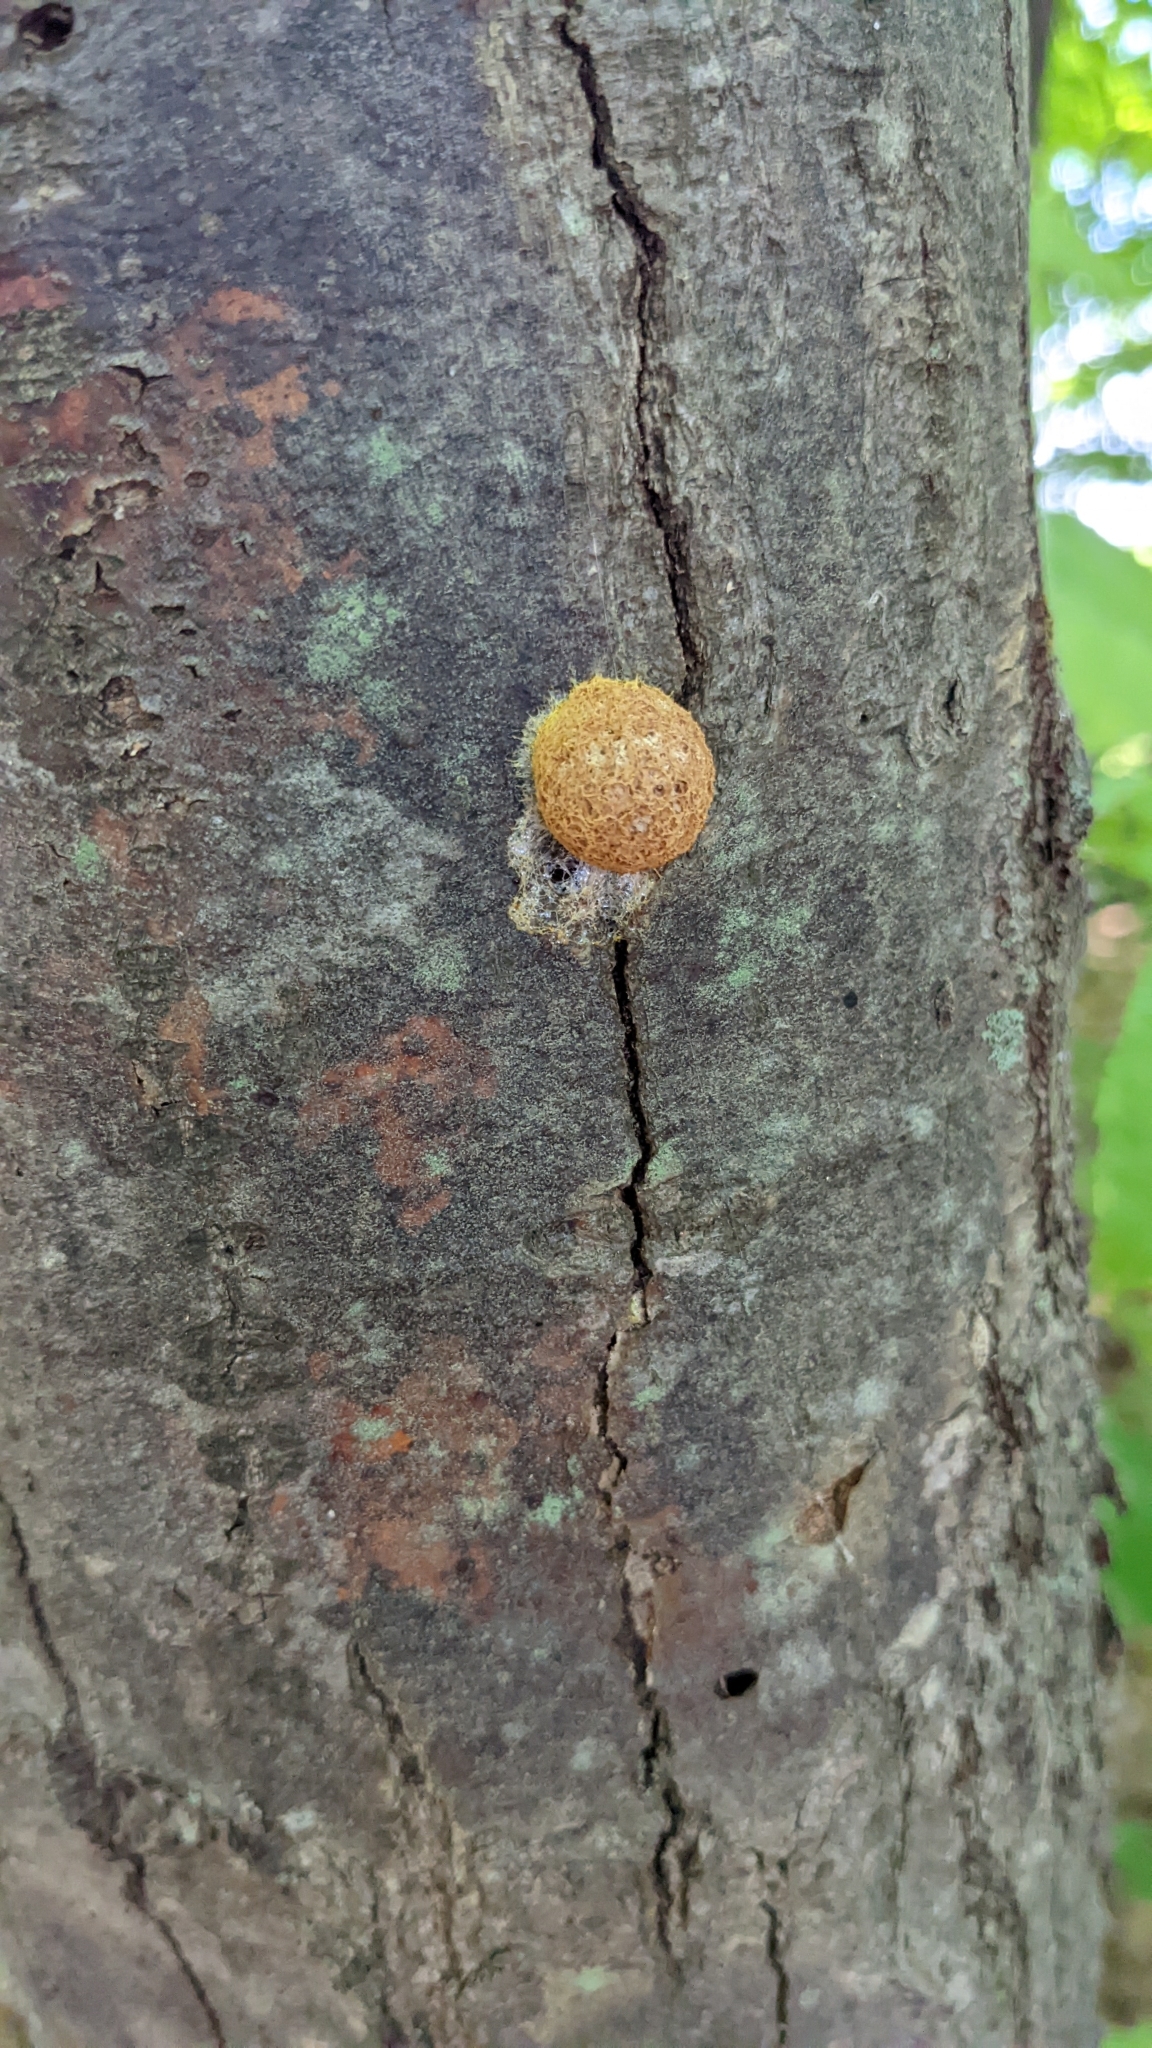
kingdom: Protozoa
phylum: Mycetozoa
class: Myxomycetes
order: Physarales
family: Physaraceae
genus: Fuligo
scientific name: Fuligo septica
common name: Dog vomit slime mold
